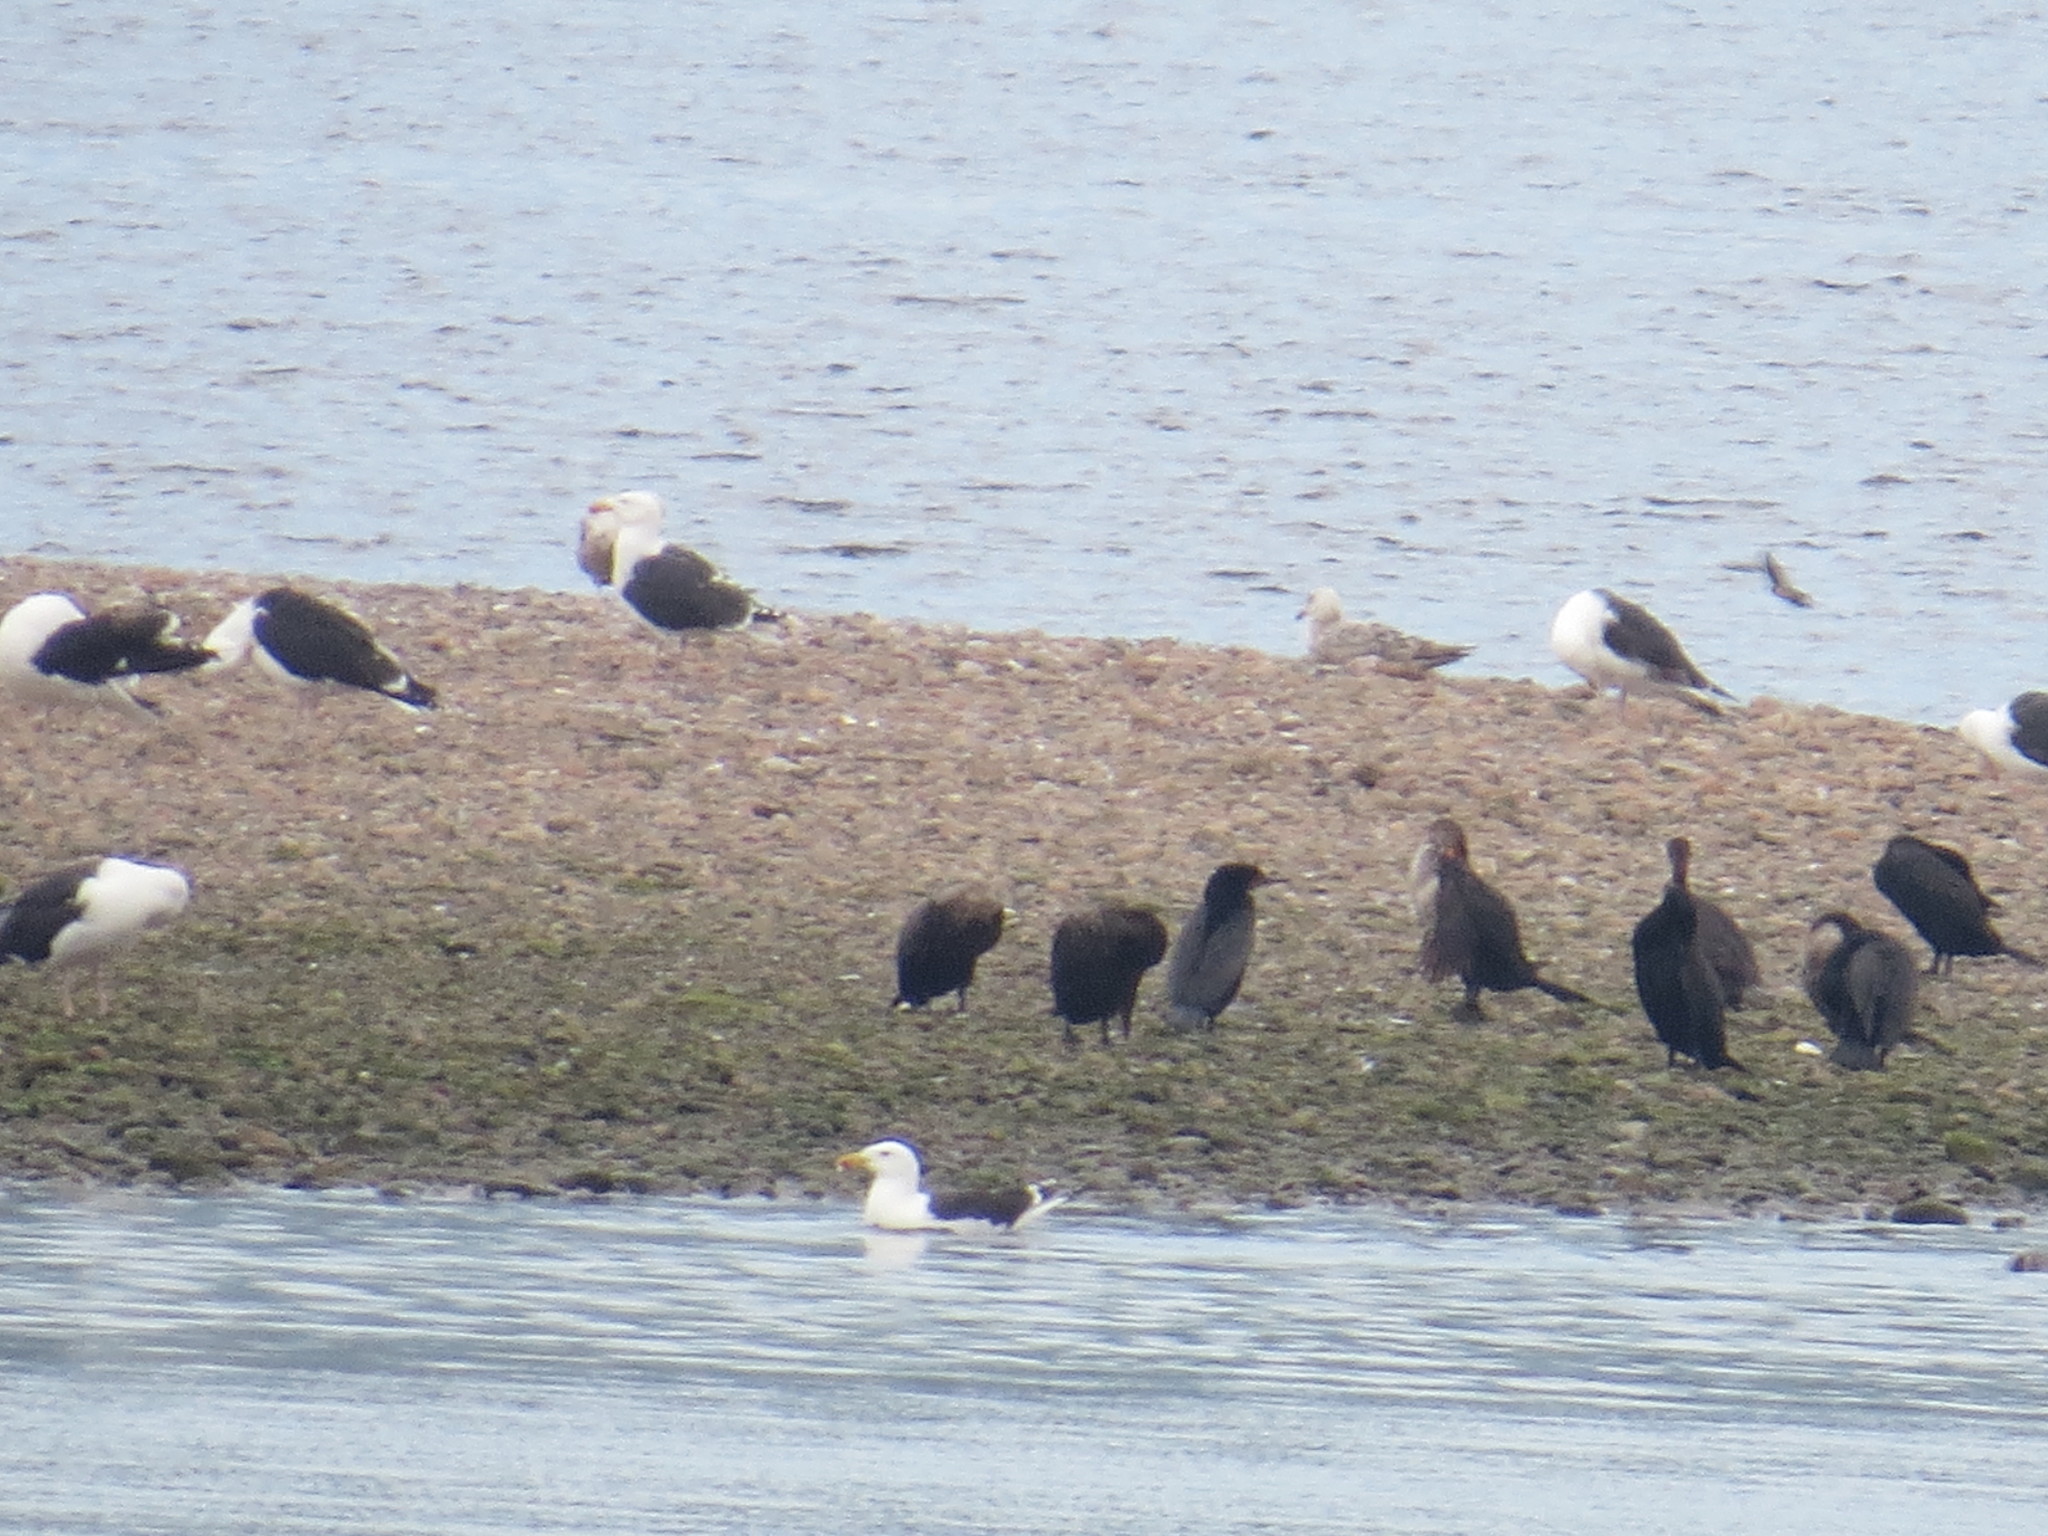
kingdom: Animalia
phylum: Chordata
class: Aves
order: Suliformes
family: Phalacrocoracidae
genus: Phalacrocorax
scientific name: Phalacrocorax auritus
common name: Double-crested cormorant
